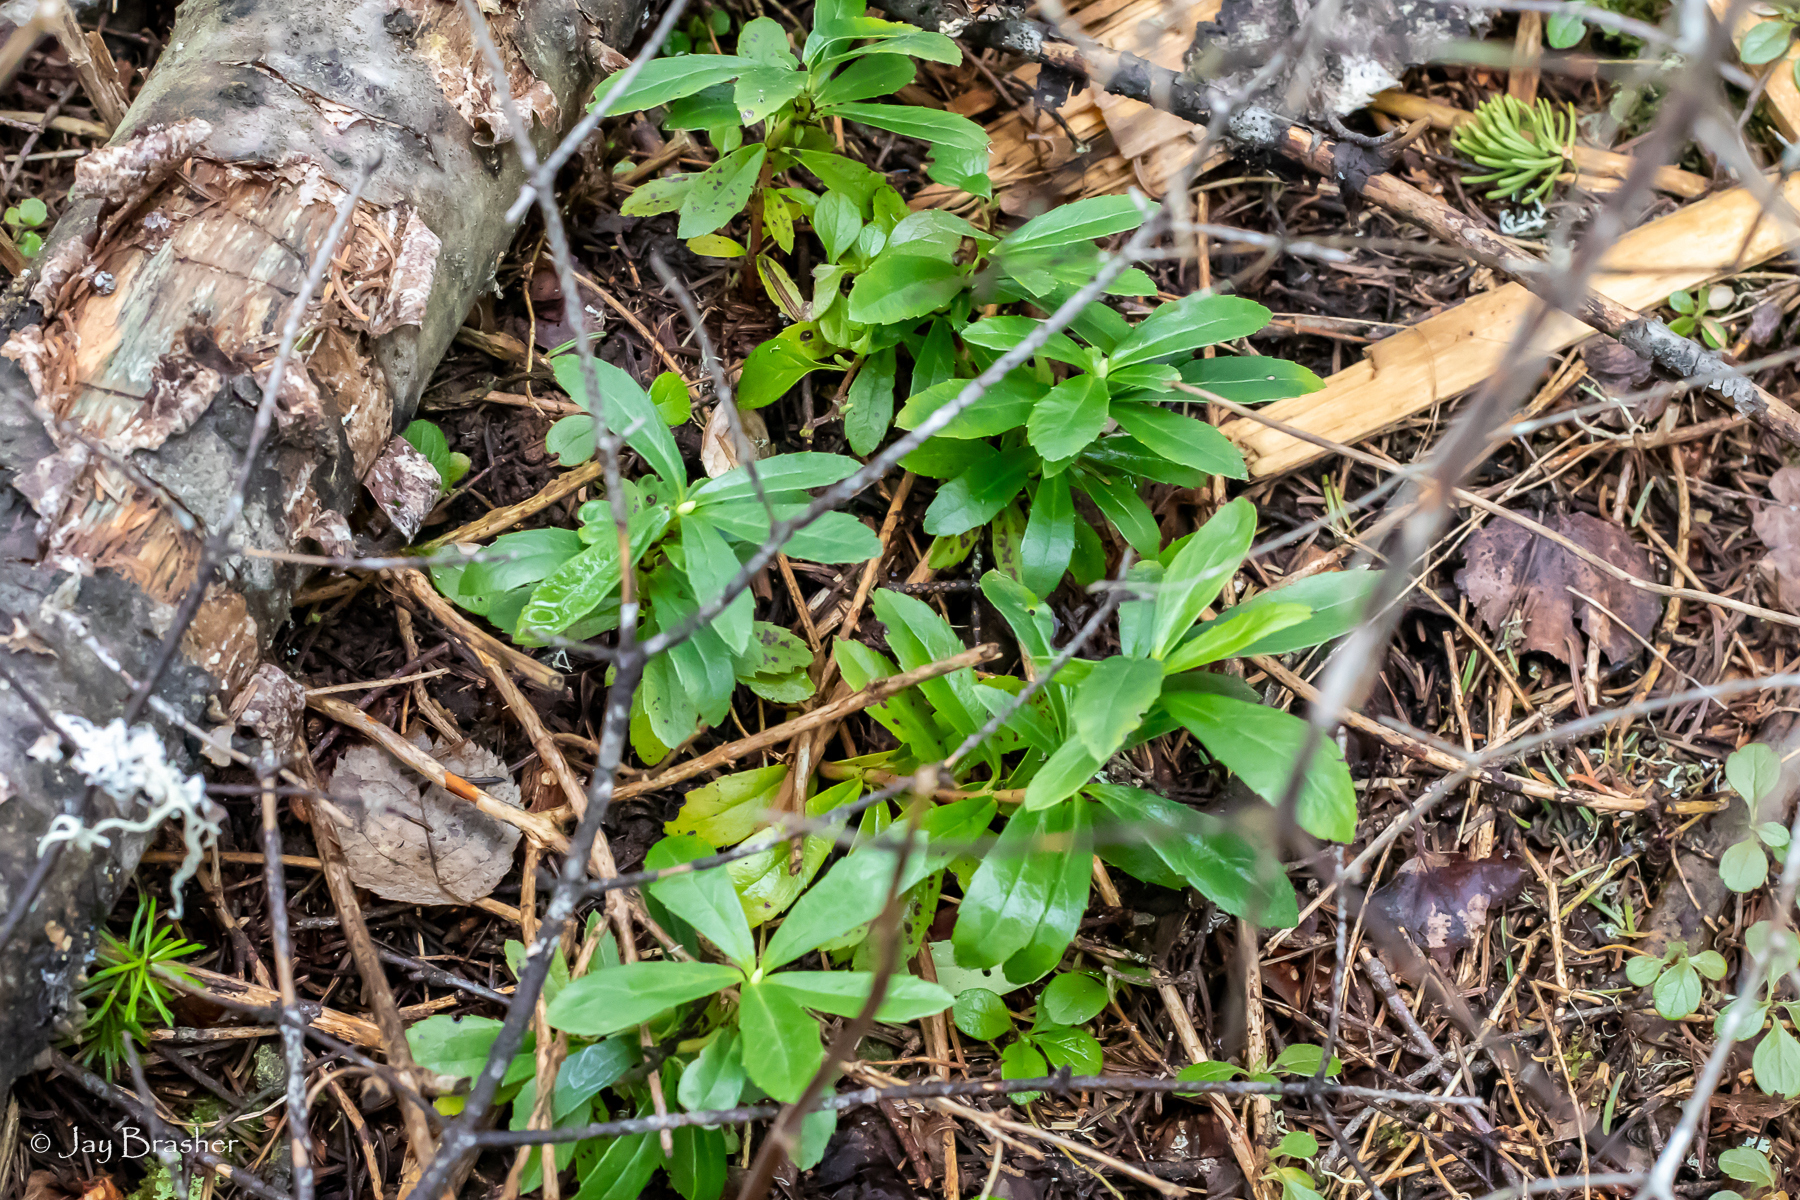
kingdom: Plantae
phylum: Tracheophyta
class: Magnoliopsida
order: Ericales
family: Ericaceae
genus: Chimaphila
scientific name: Chimaphila umbellata
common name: Pipsissewa
